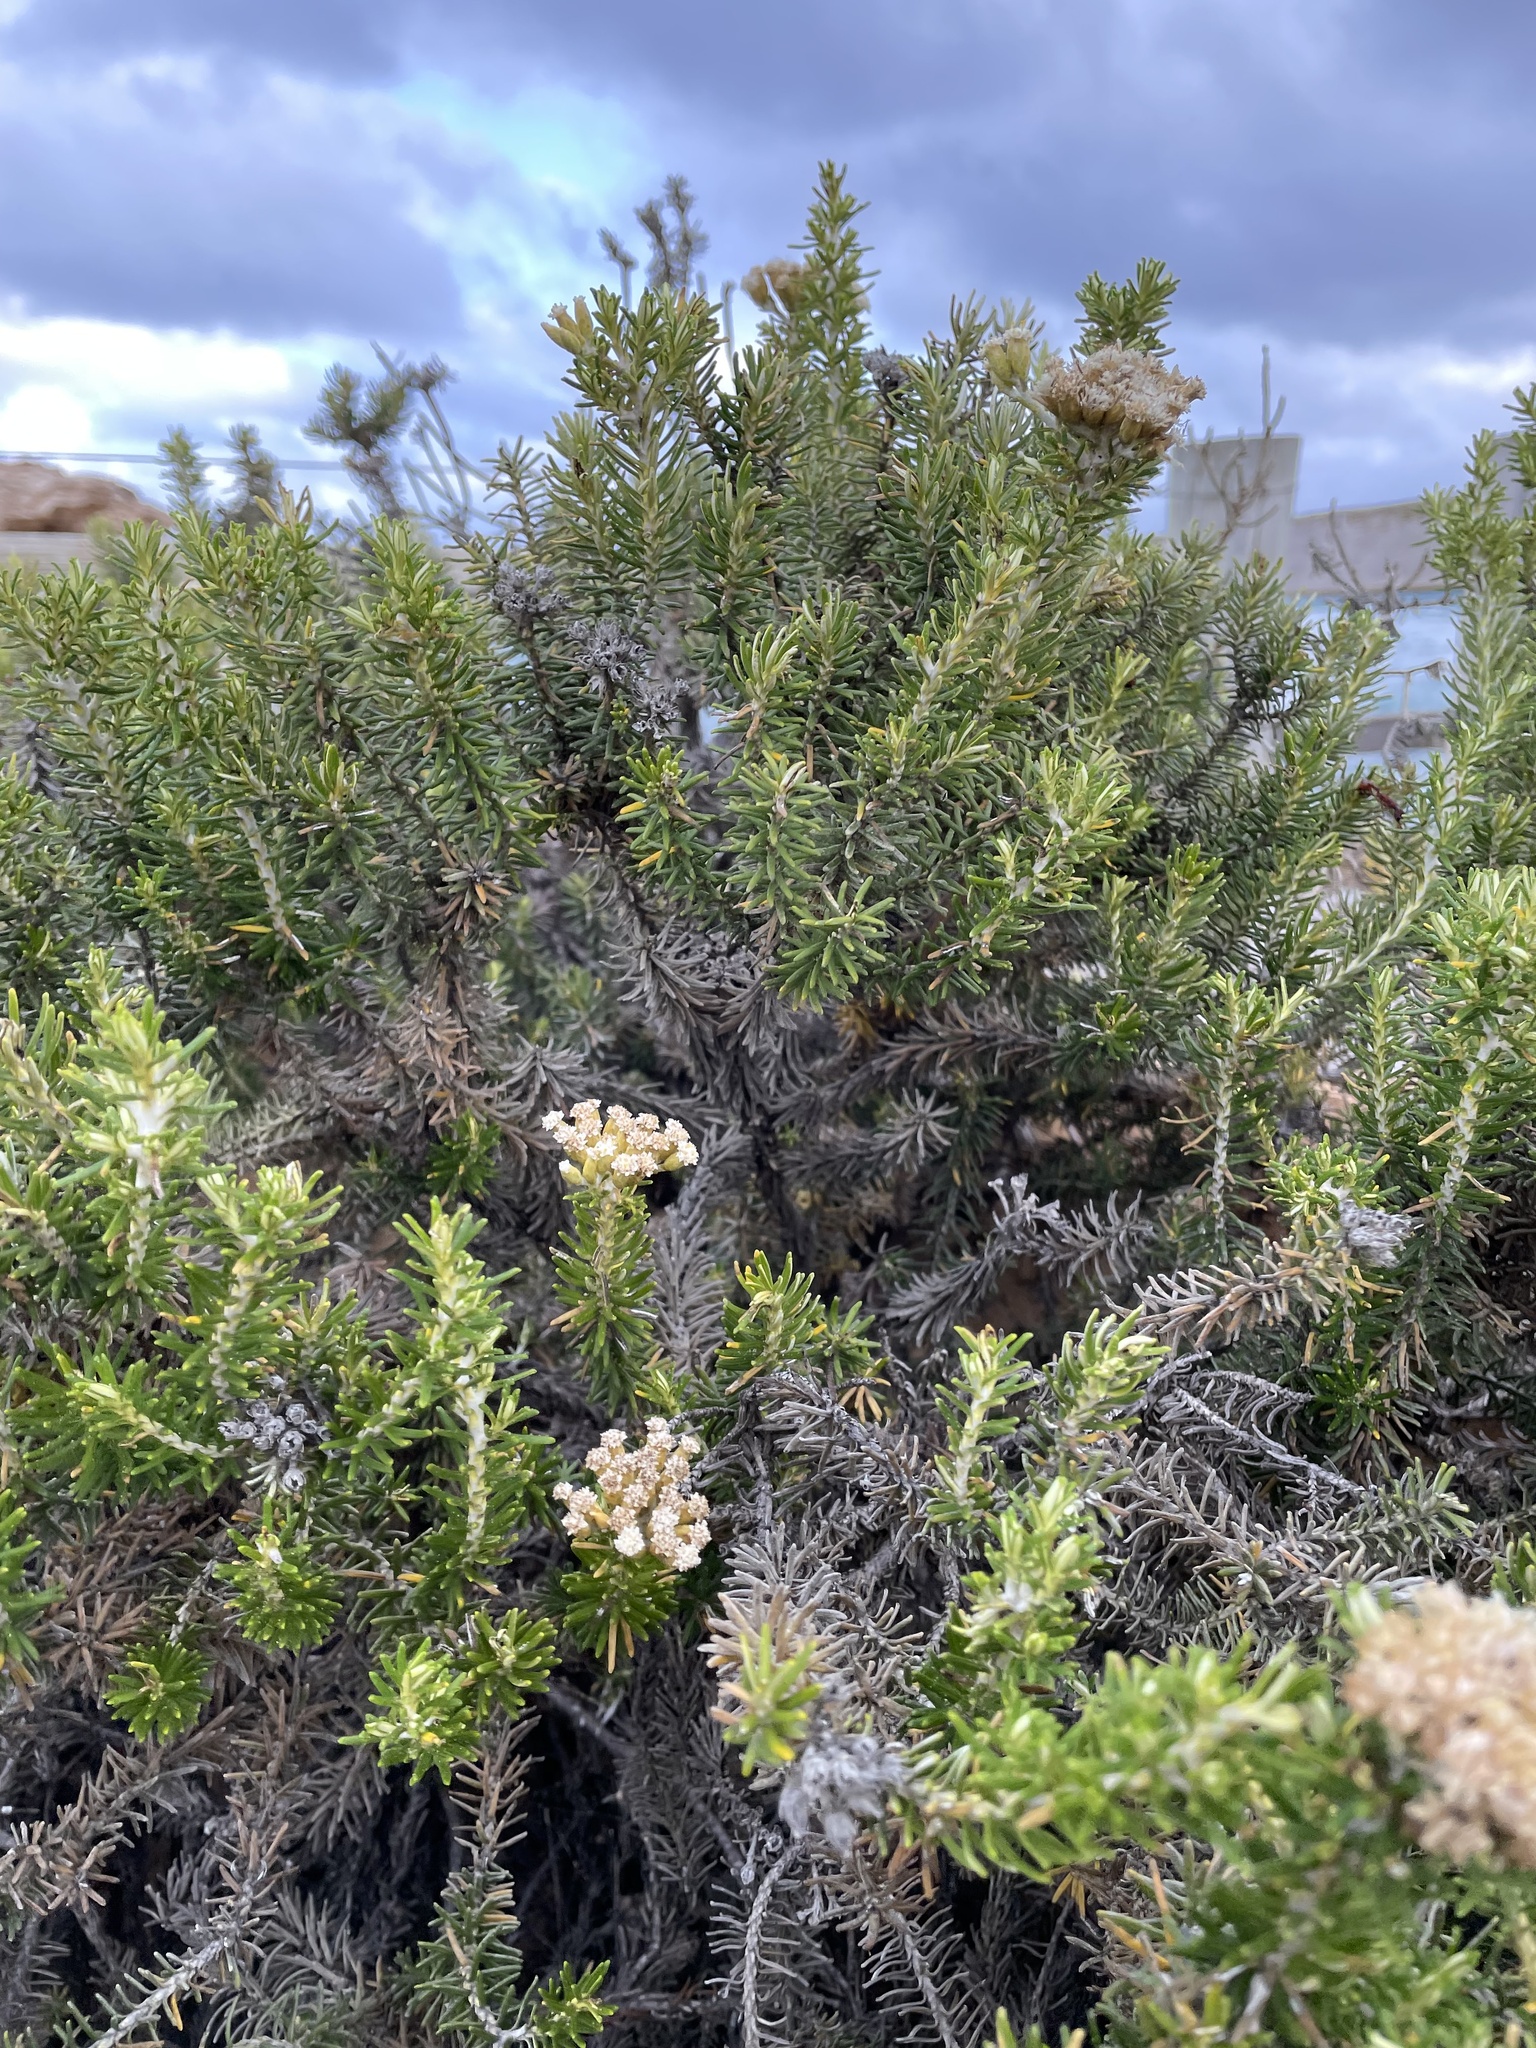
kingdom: Plantae
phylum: Tracheophyta
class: Magnoliopsida
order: Asterales
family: Asteraceae
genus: Ozothamnus
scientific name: Ozothamnus cinereus
